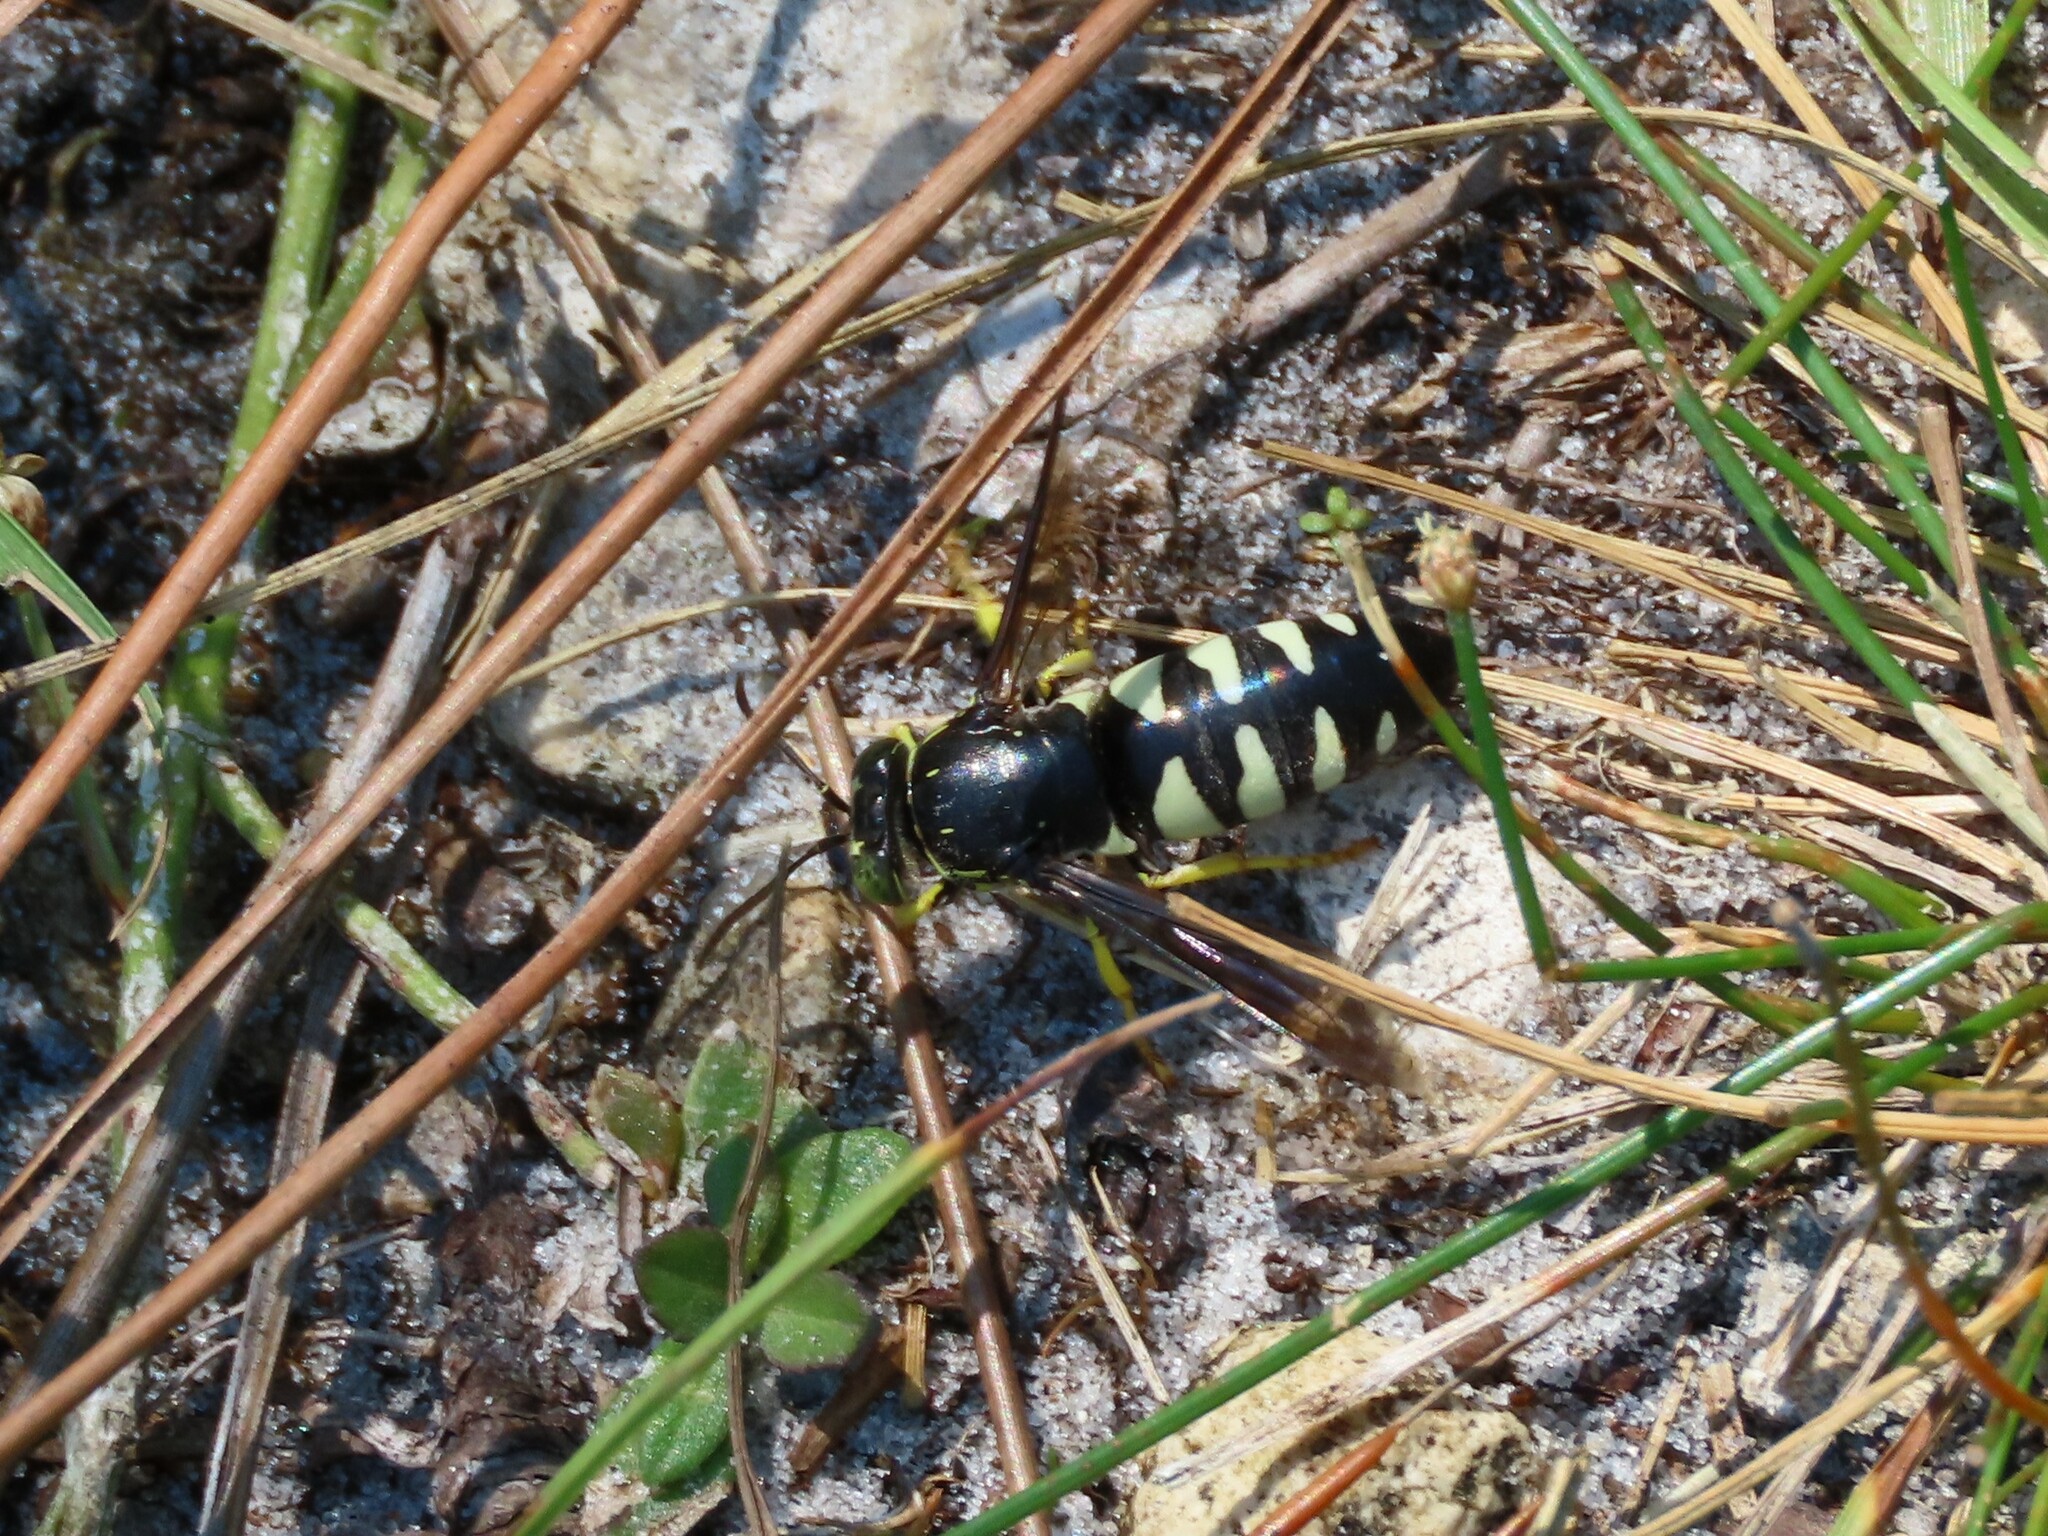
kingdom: Animalia
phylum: Arthropoda
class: Insecta
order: Hymenoptera
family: Crabronidae
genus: Bicyrtes
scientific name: Bicyrtes quadrifasciatus
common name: Four-banded stink bug hunter wasp
